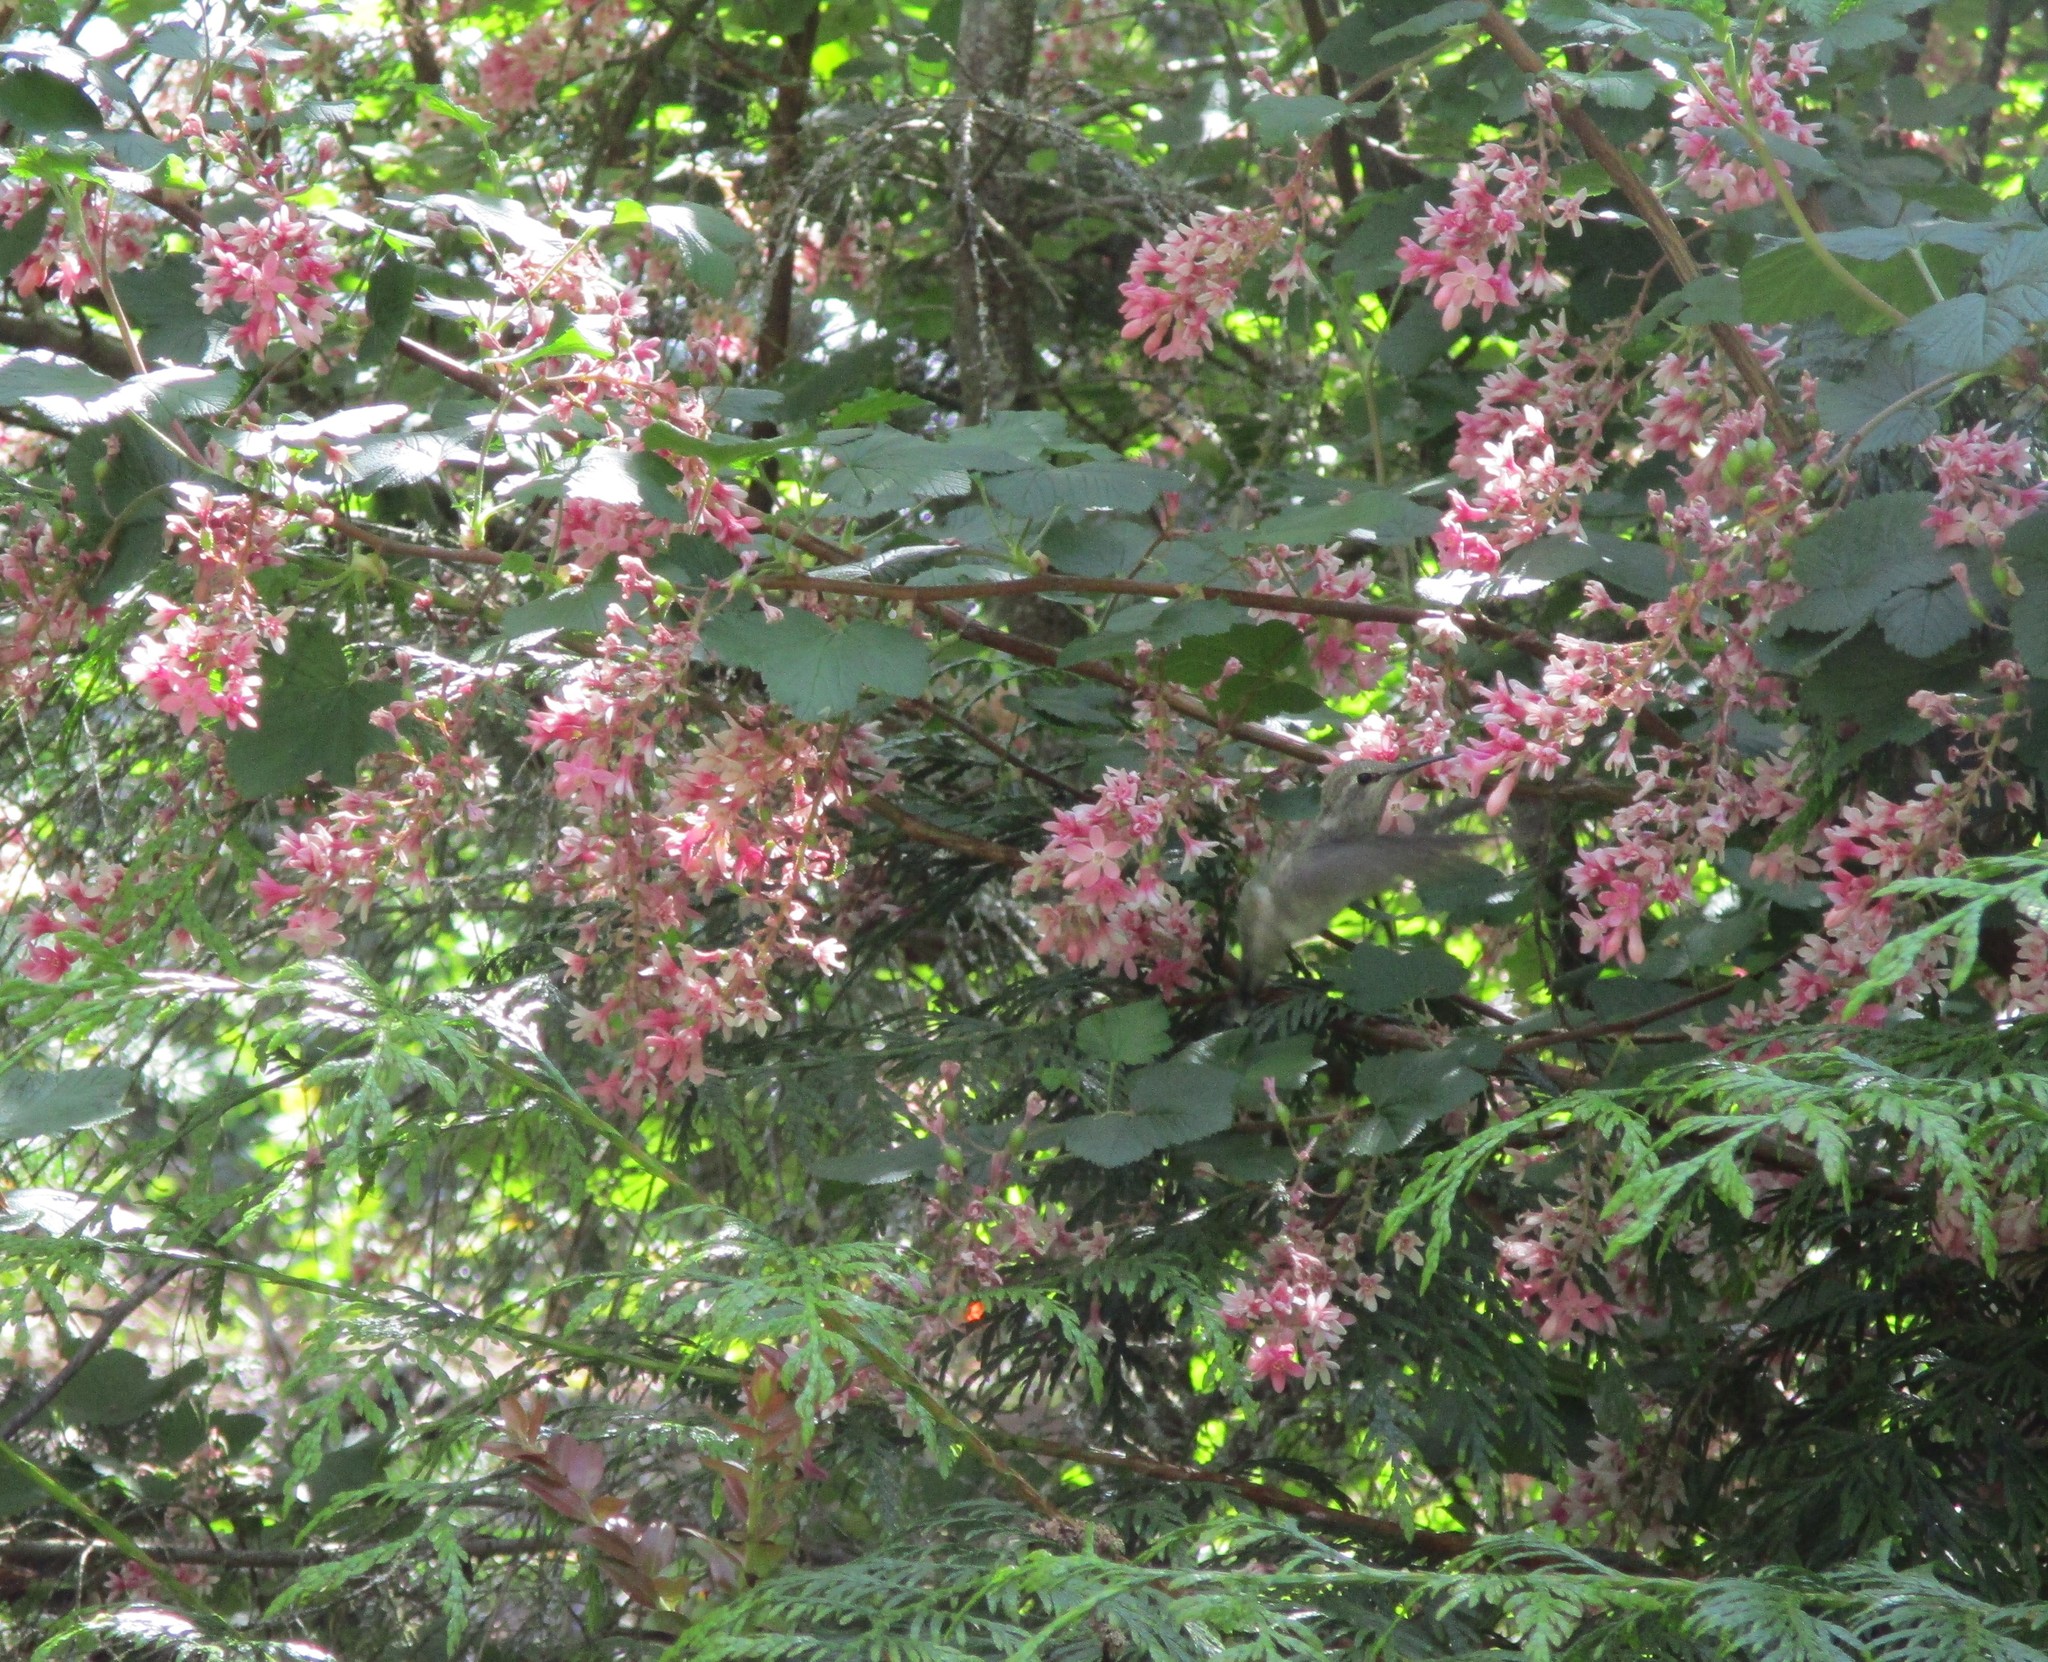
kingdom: Animalia
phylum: Chordata
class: Aves
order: Apodiformes
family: Trochilidae
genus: Calypte
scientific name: Calypte anna
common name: Anna's hummingbird
